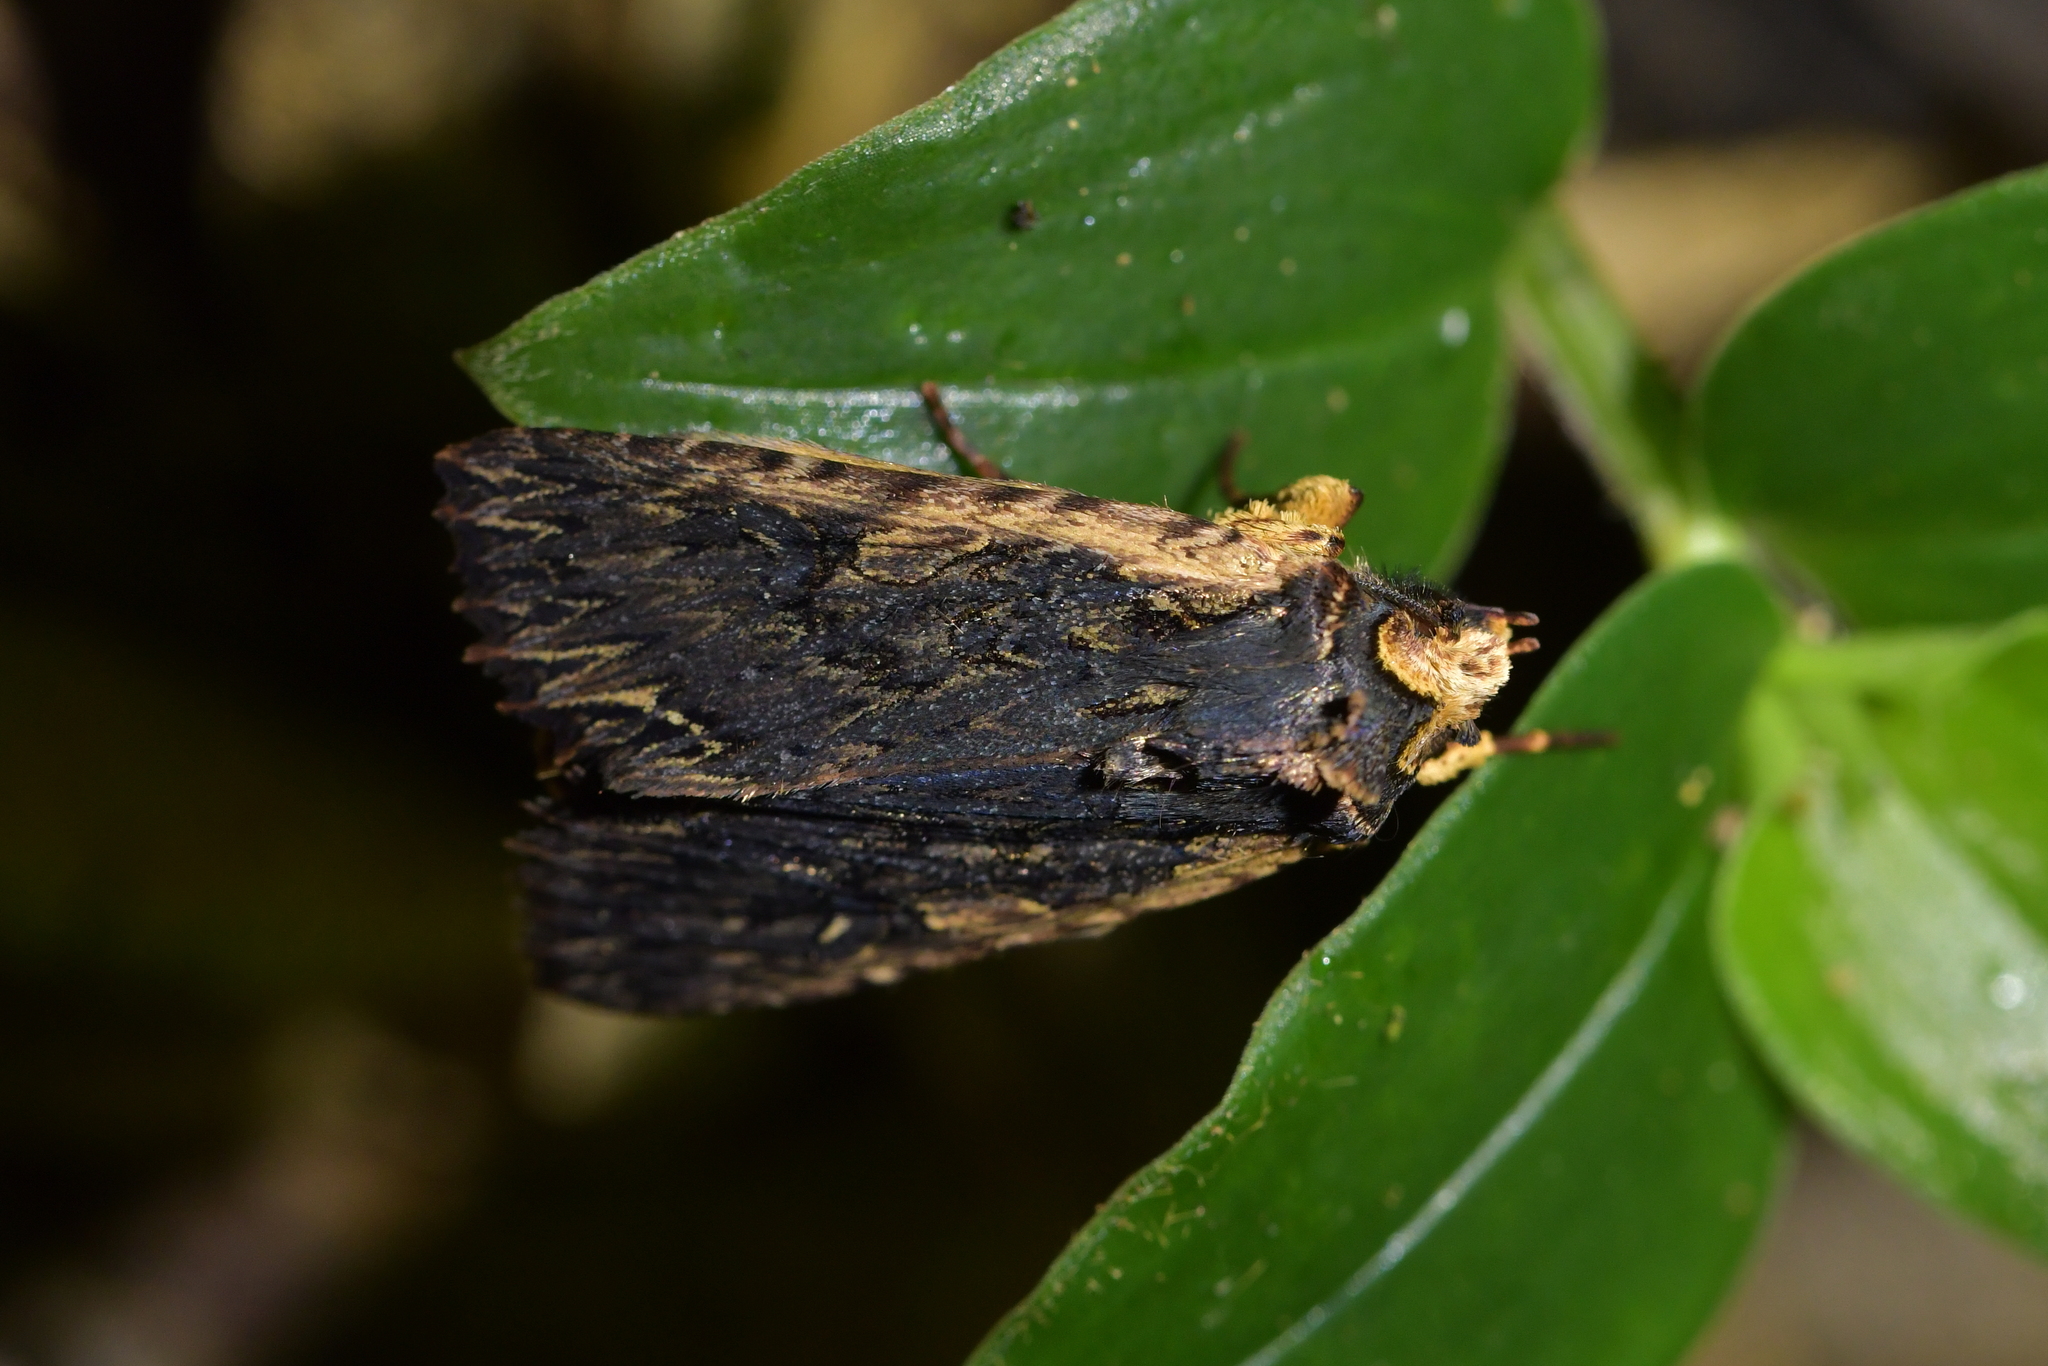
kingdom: Animalia
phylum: Arthropoda
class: Insecta
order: Lepidoptera
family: Noctuidae
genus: Meterana
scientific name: Meterana alcyone
